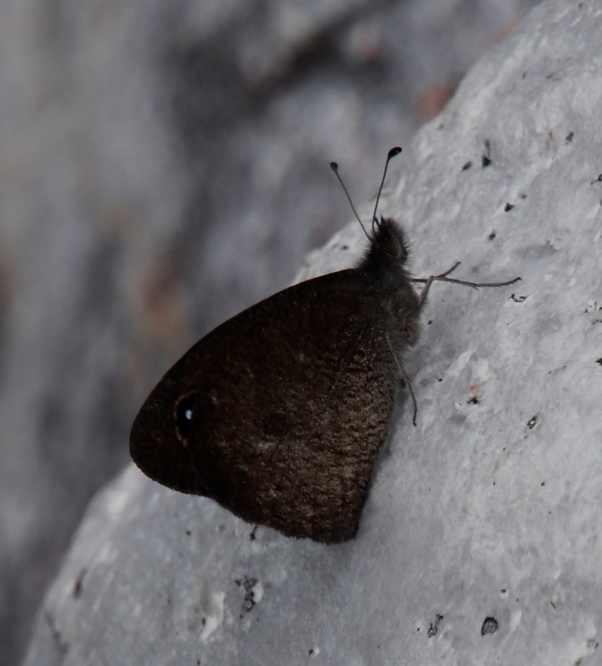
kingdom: Animalia
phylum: Arthropoda
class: Insecta
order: Lepidoptera
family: Nymphalidae
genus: Stygionympha
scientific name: Stygionympha vigilans
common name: Western hillside brown
